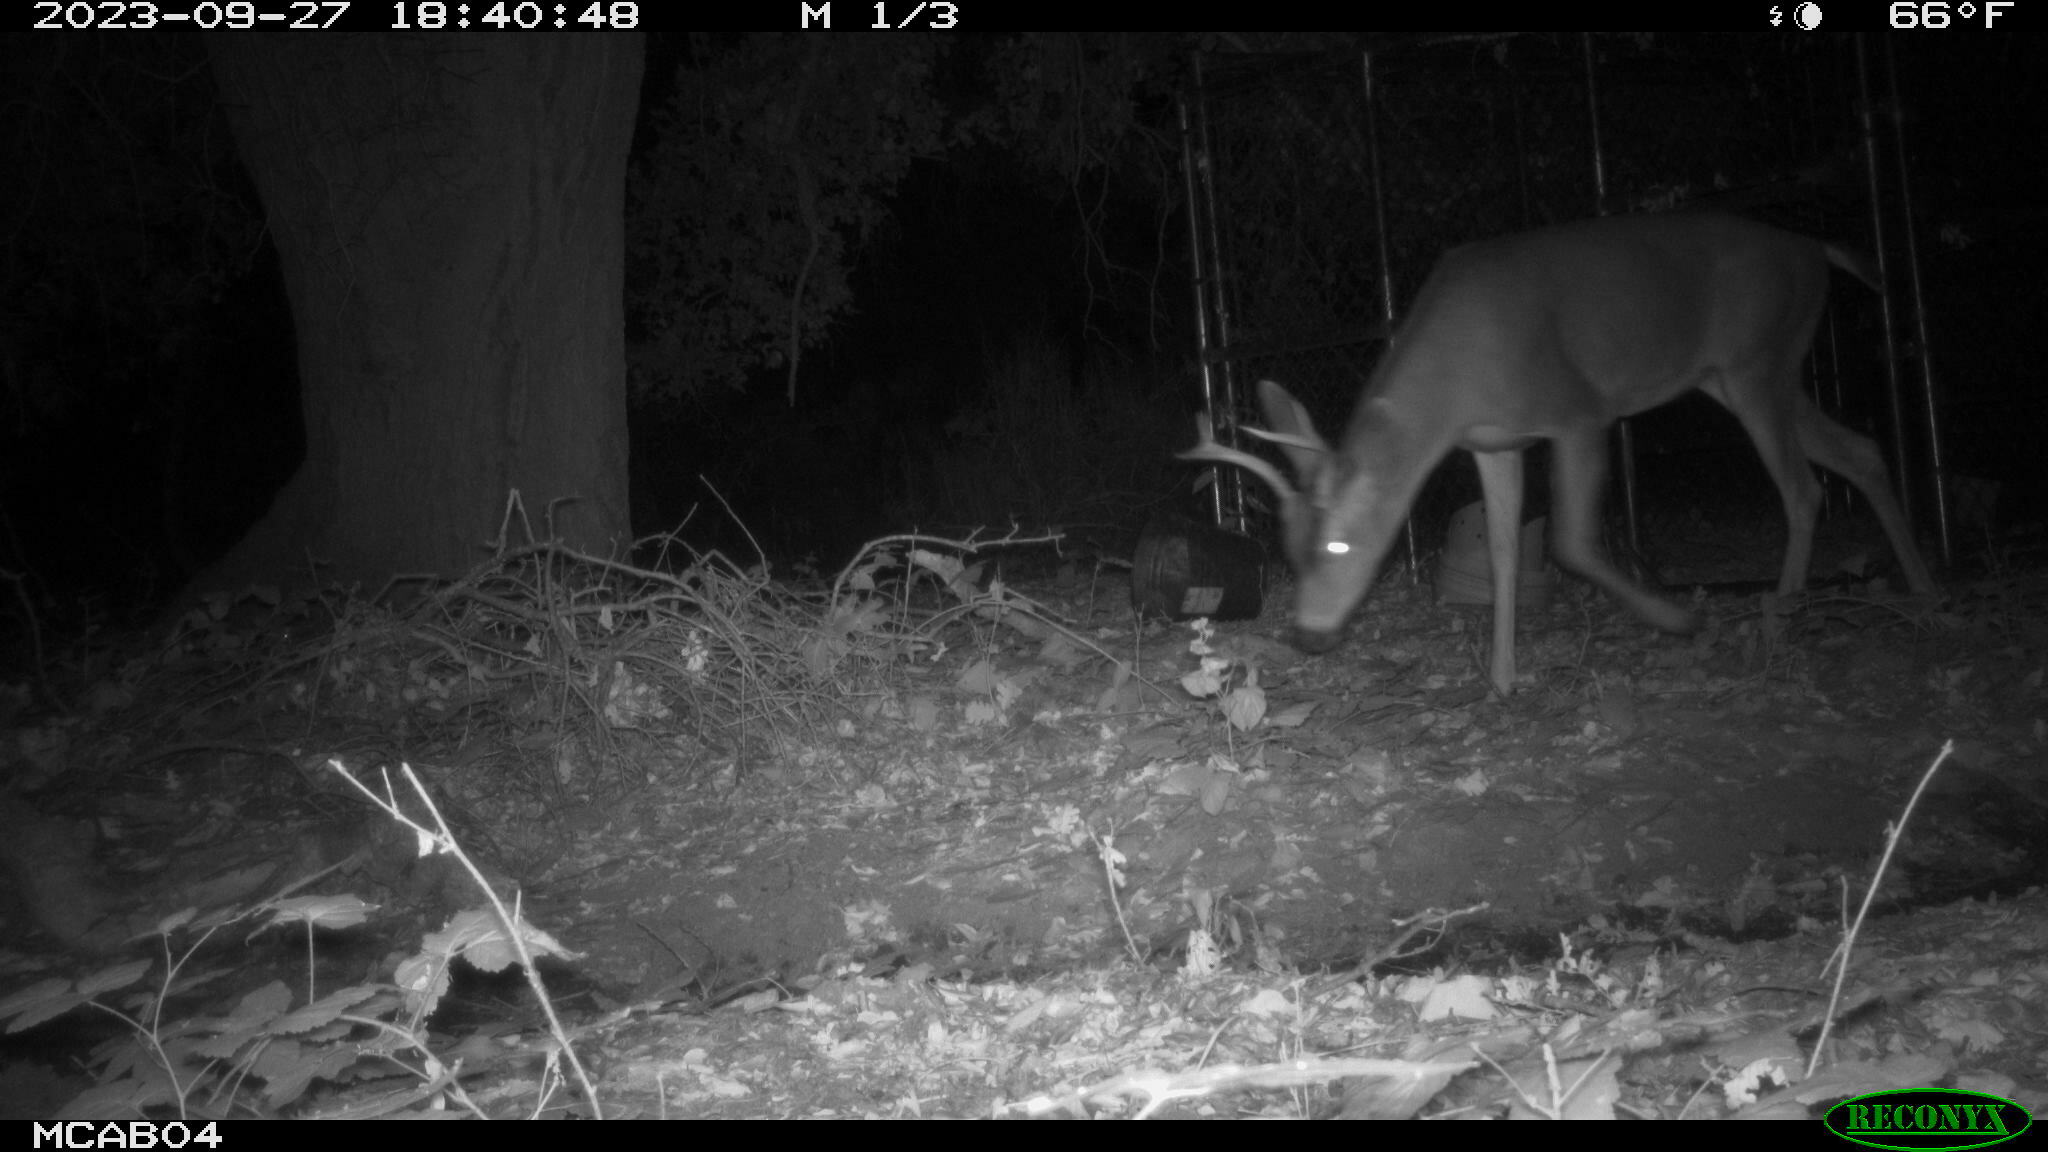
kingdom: Animalia
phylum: Chordata
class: Mammalia
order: Artiodactyla
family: Cervidae
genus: Odocoileus
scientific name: Odocoileus hemionus
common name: Mule deer
